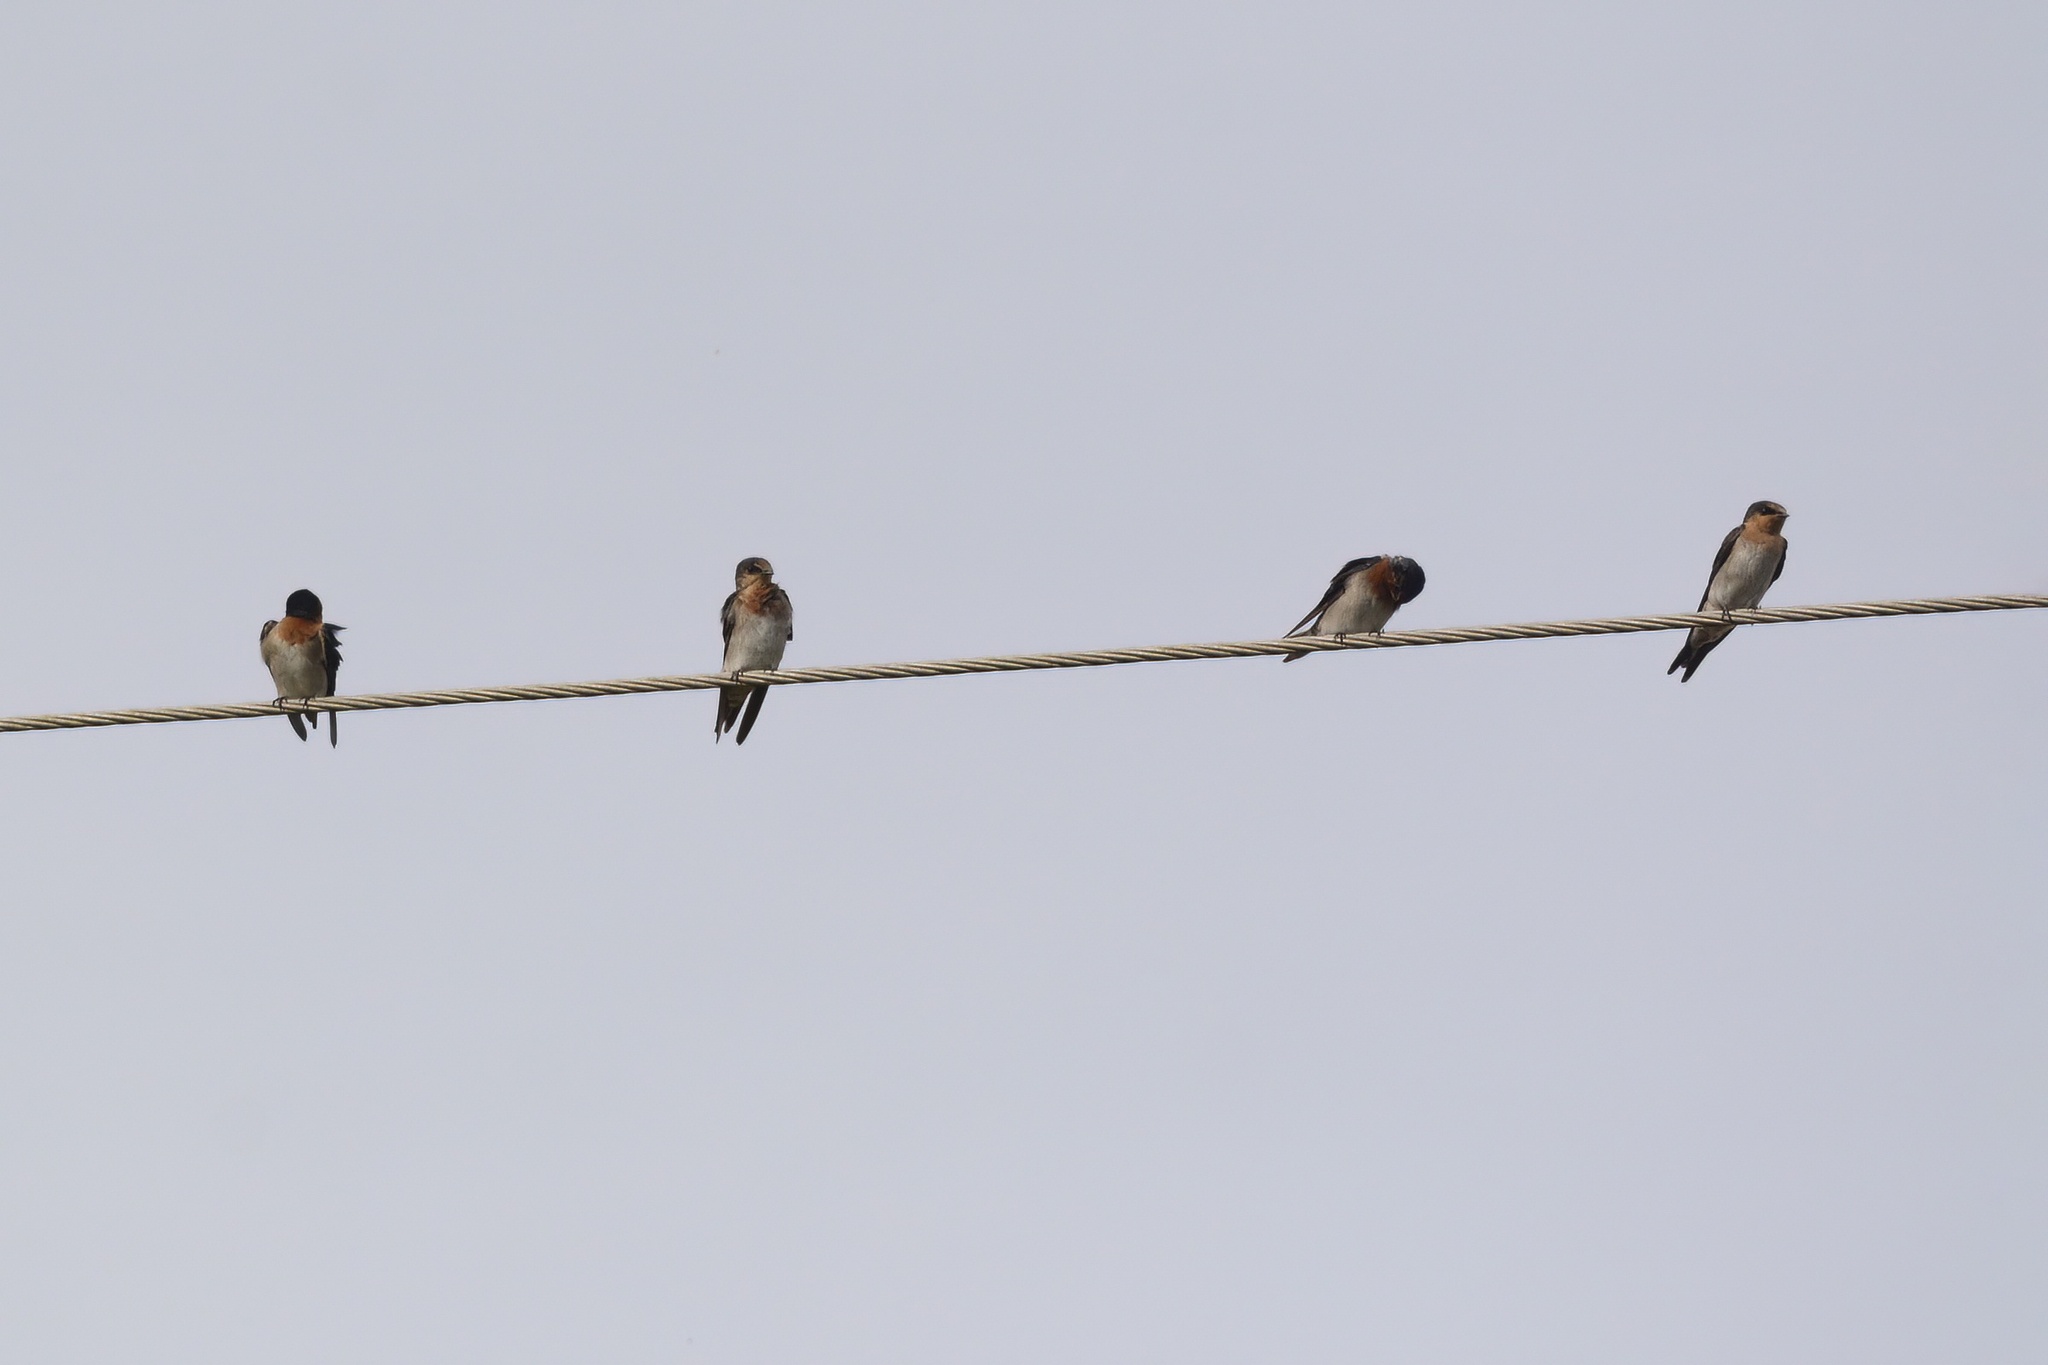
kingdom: Animalia
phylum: Chordata
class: Aves
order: Passeriformes
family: Hirundinidae
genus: Hirundo
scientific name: Hirundo neoxena
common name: Welcome swallow
